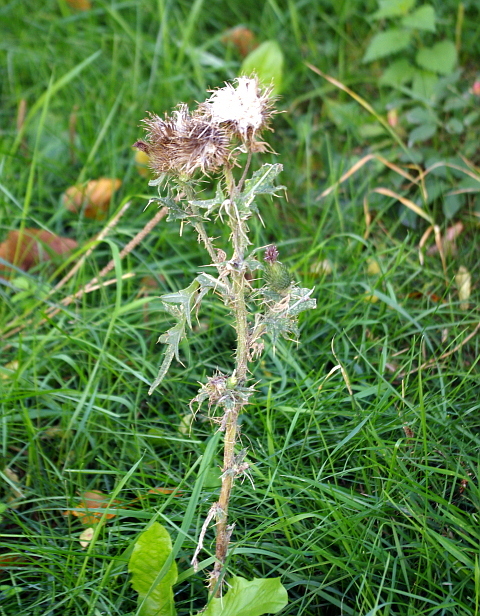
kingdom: Plantae
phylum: Tracheophyta
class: Magnoliopsida
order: Asterales
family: Asteraceae
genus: Cirsium
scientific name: Cirsium vulgare
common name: Bull thistle
